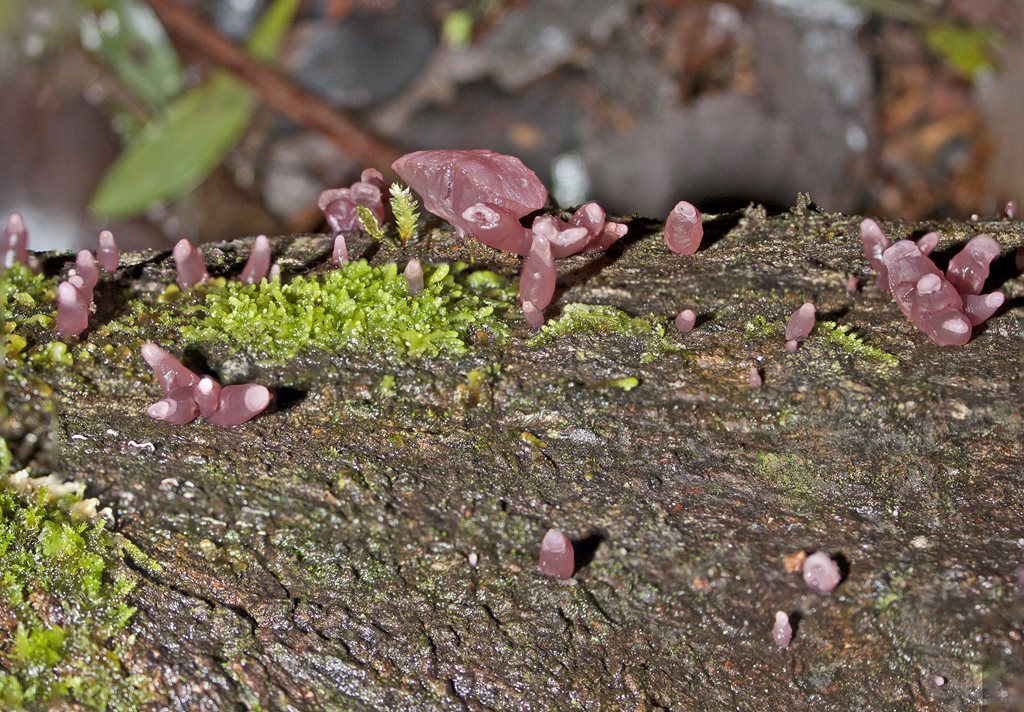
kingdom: Fungi
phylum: Ascomycota
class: Leotiomycetes
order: Helotiales
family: Gelatinodiscaceae
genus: Ascocoryne
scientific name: Ascocoryne sarcoides
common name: Purple jellydisc
